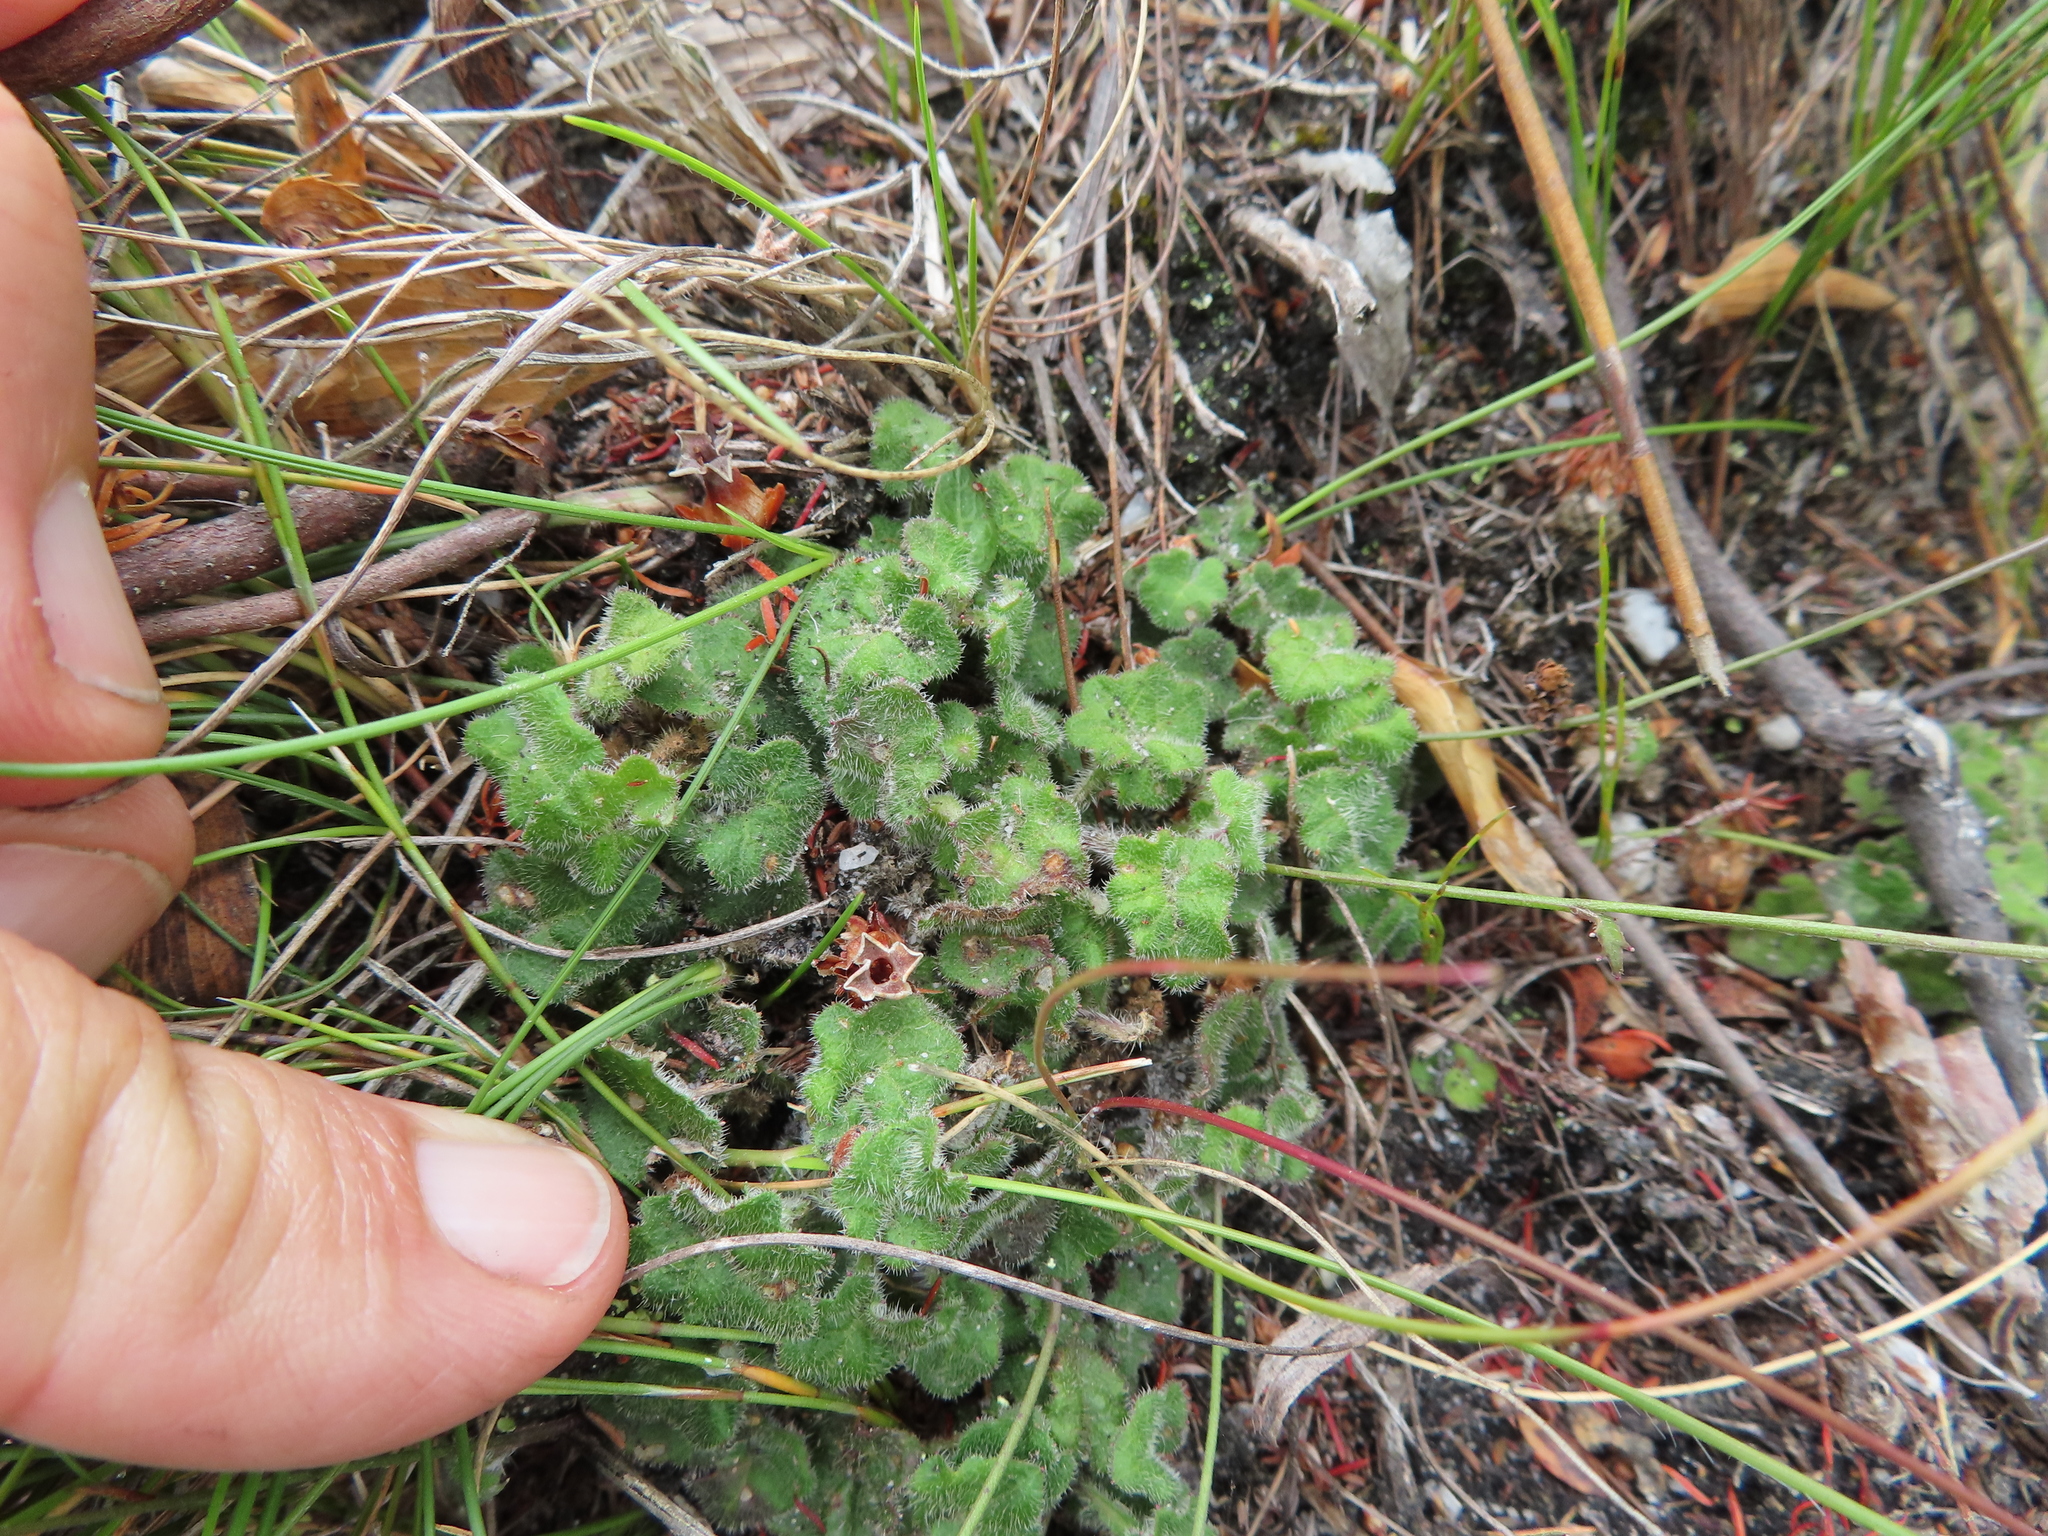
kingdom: Plantae
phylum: Tracheophyta
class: Magnoliopsida
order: Asterales
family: Campanulaceae
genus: Lobelia
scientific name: Lobelia dasyphylla
